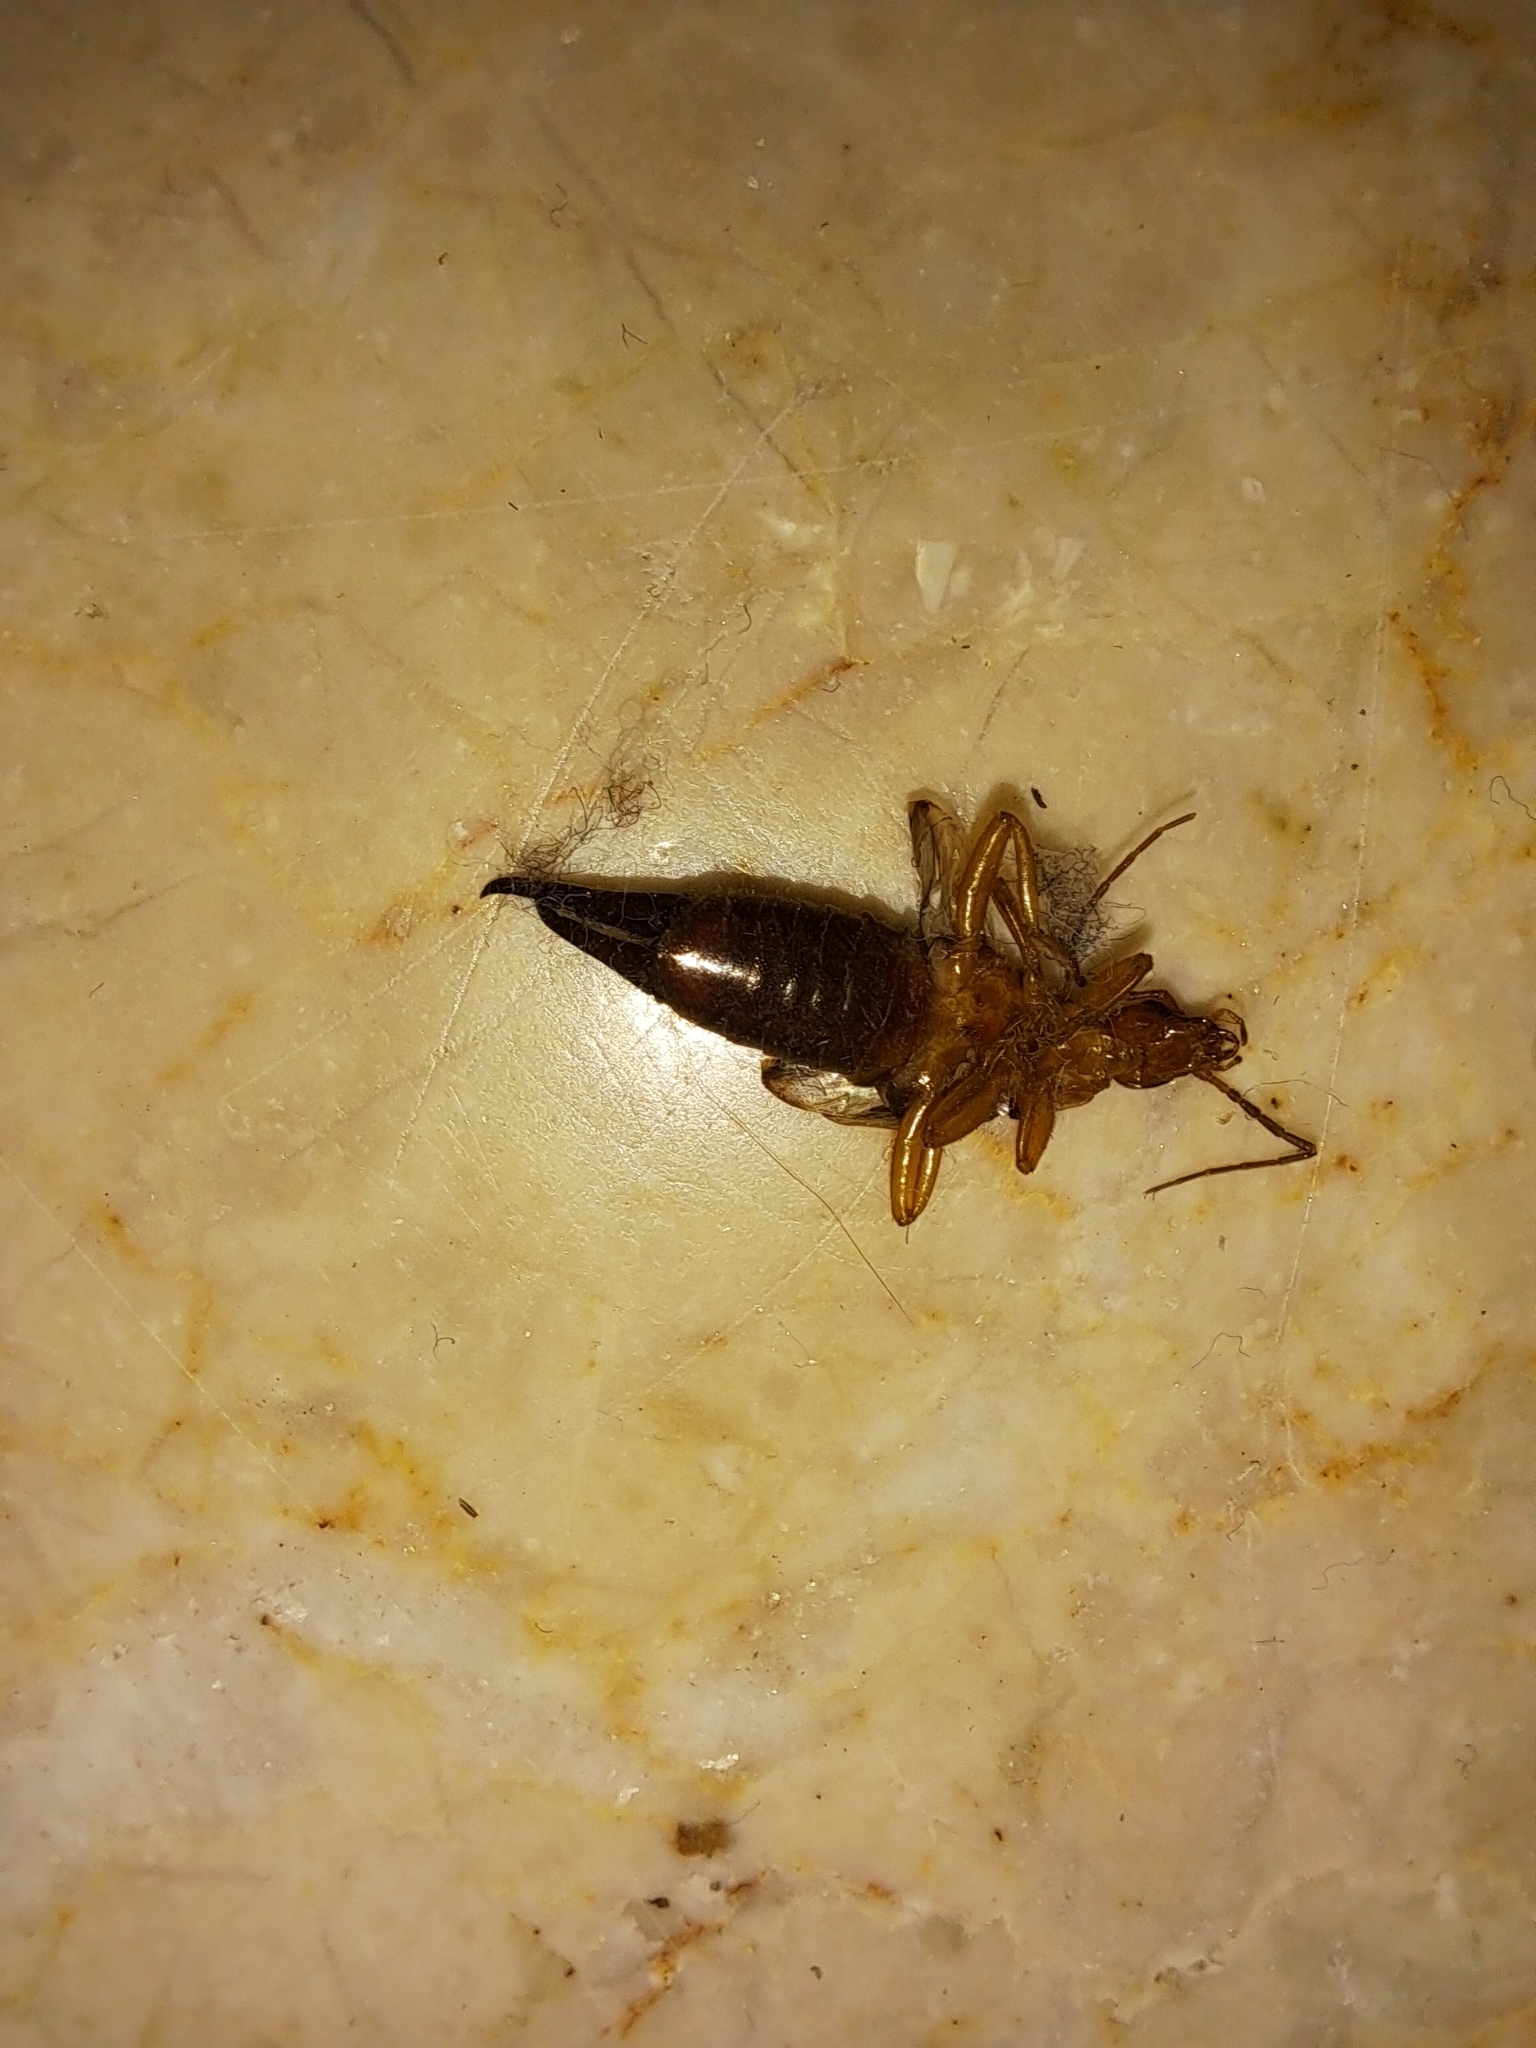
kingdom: Animalia
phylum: Arthropoda
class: Insecta
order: Dermaptera
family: Forficulidae
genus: Forficula
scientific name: Forficula smyrnensis
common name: Smyrna earwig
